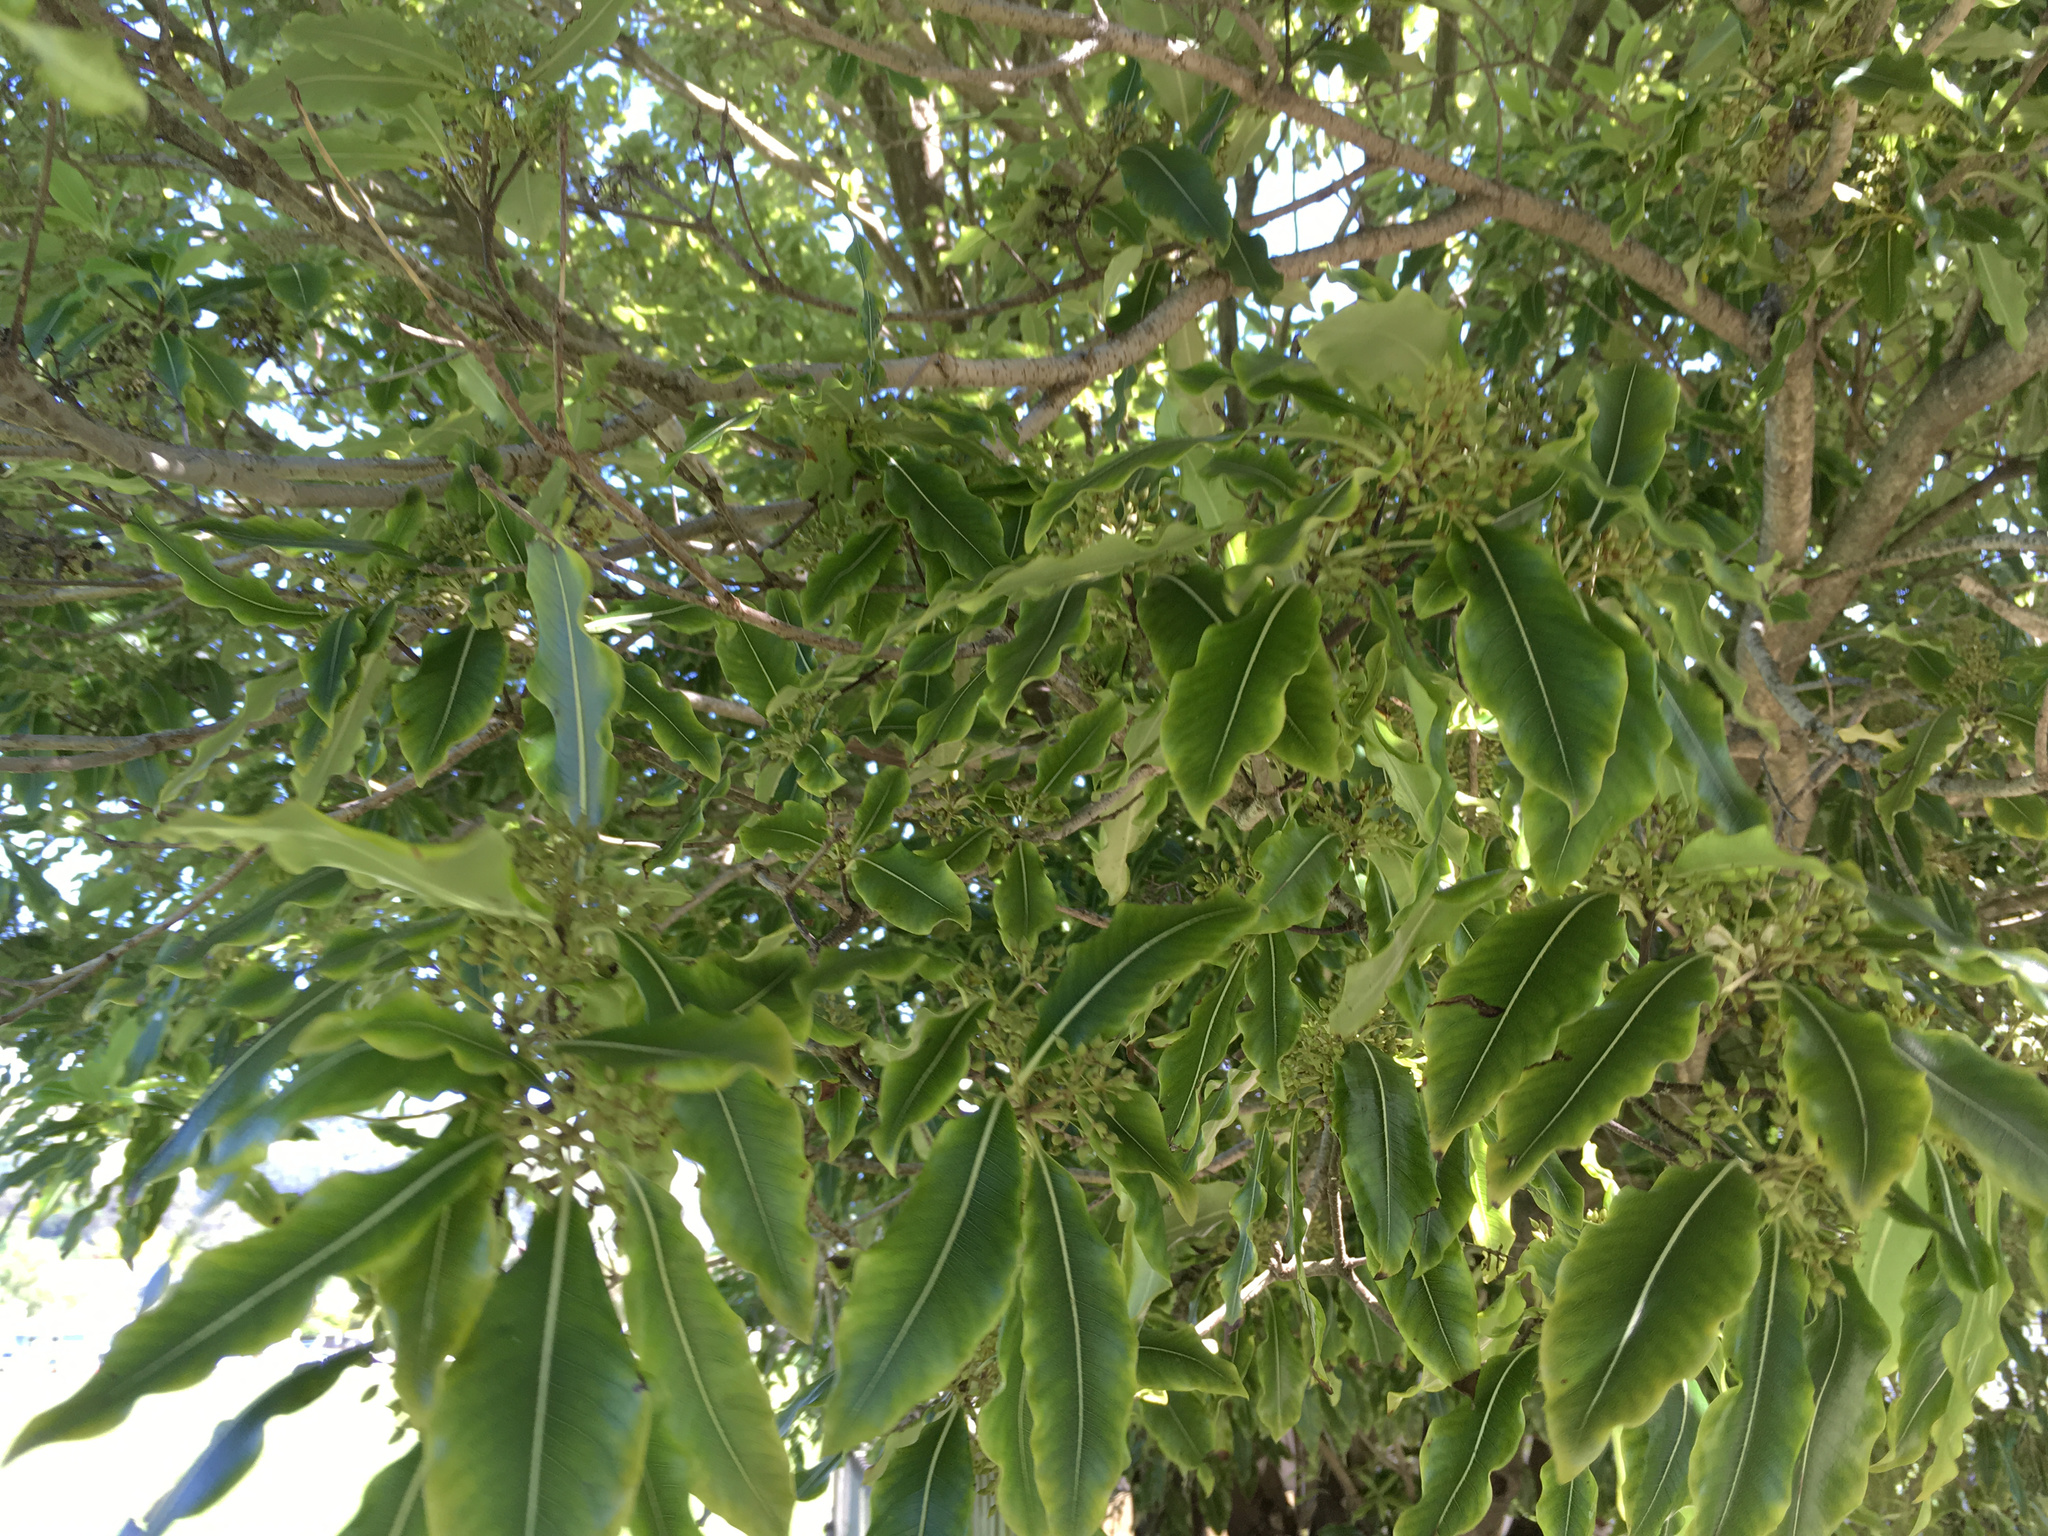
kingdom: Plantae
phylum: Tracheophyta
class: Magnoliopsida
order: Apiales
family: Pittosporaceae
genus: Pittosporum
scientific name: Pittosporum eugenioides
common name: Lemonwood
